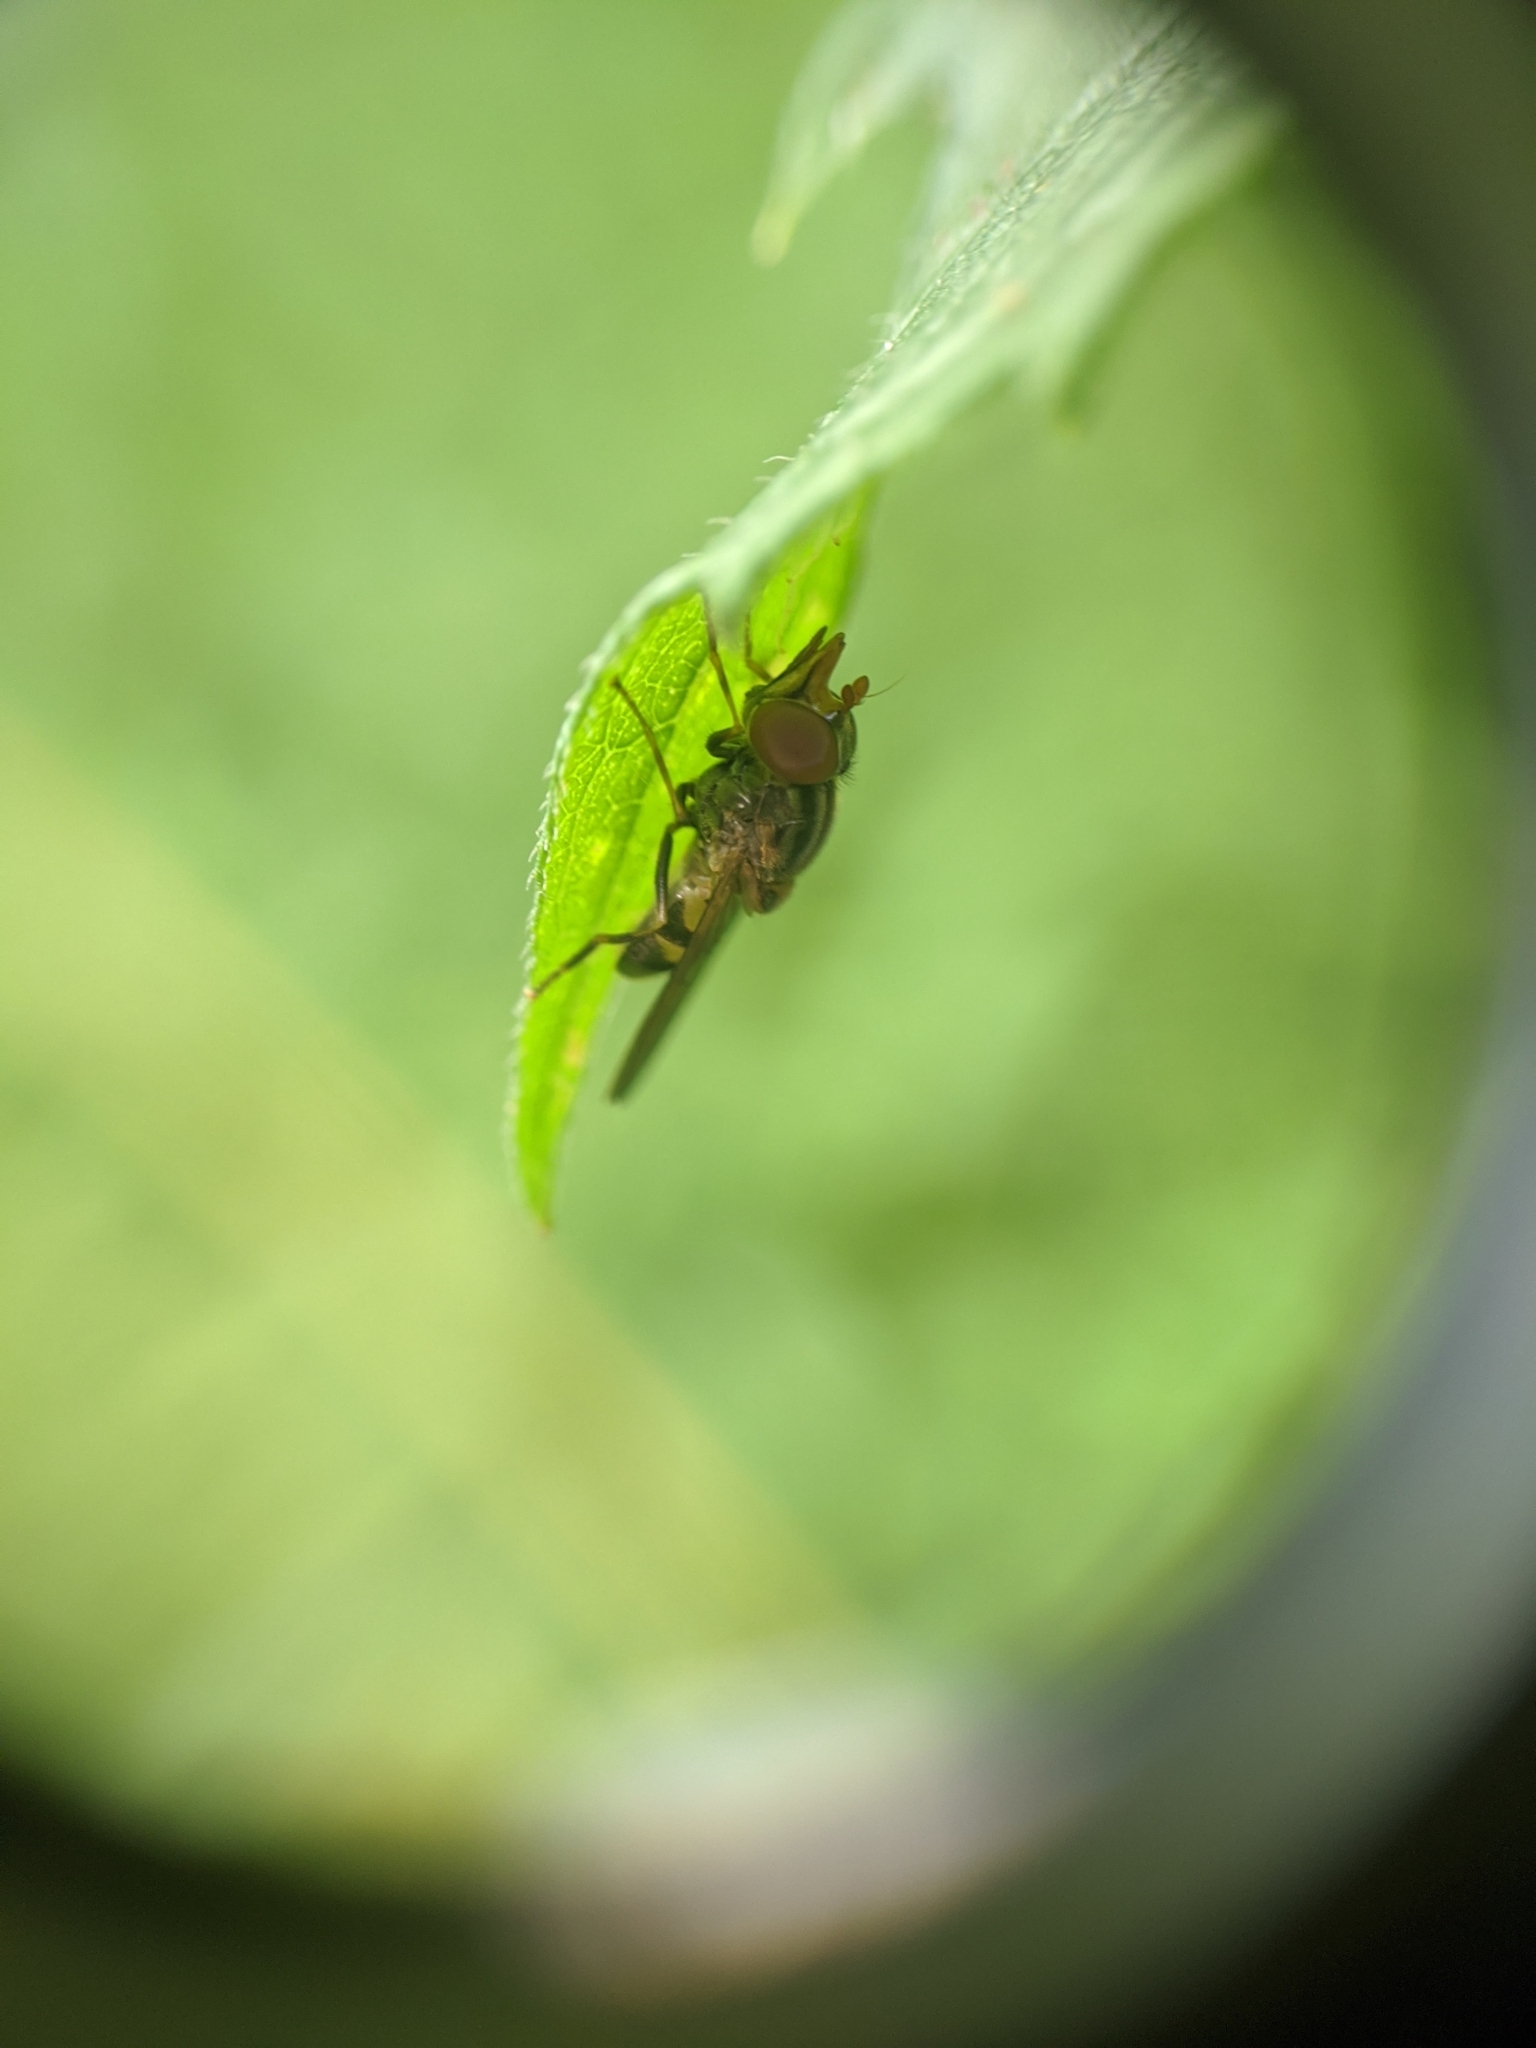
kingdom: Animalia
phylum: Arthropoda
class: Insecta
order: Diptera
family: Syrphidae
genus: Rhingia
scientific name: Rhingia nasica
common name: American snout fly
